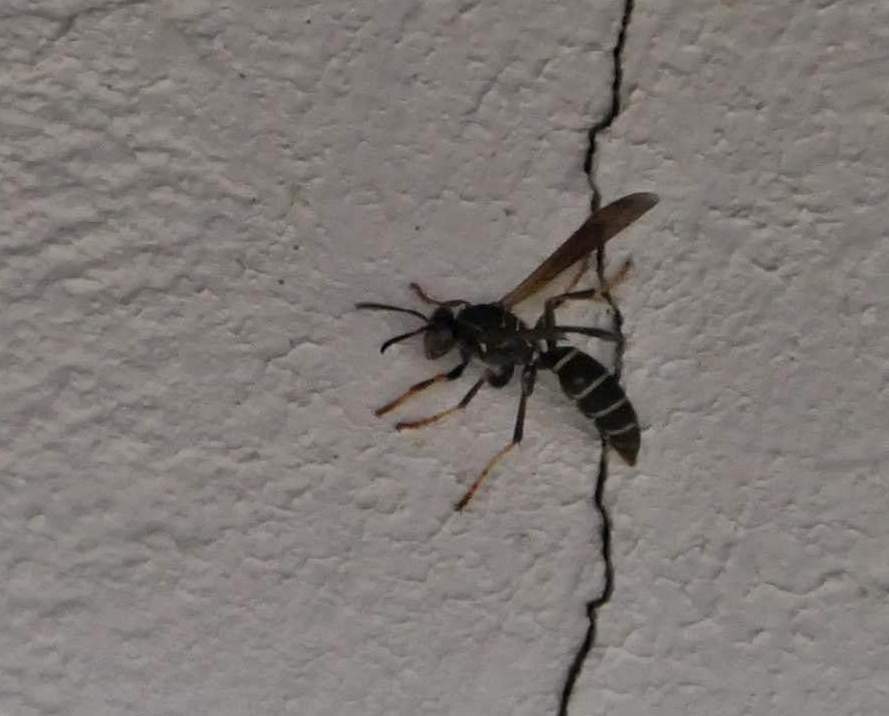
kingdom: Animalia
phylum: Arthropoda
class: Insecta
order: Hymenoptera
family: Eumenidae
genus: Polistes
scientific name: Polistes fuscatus
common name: Dark paper wasp
